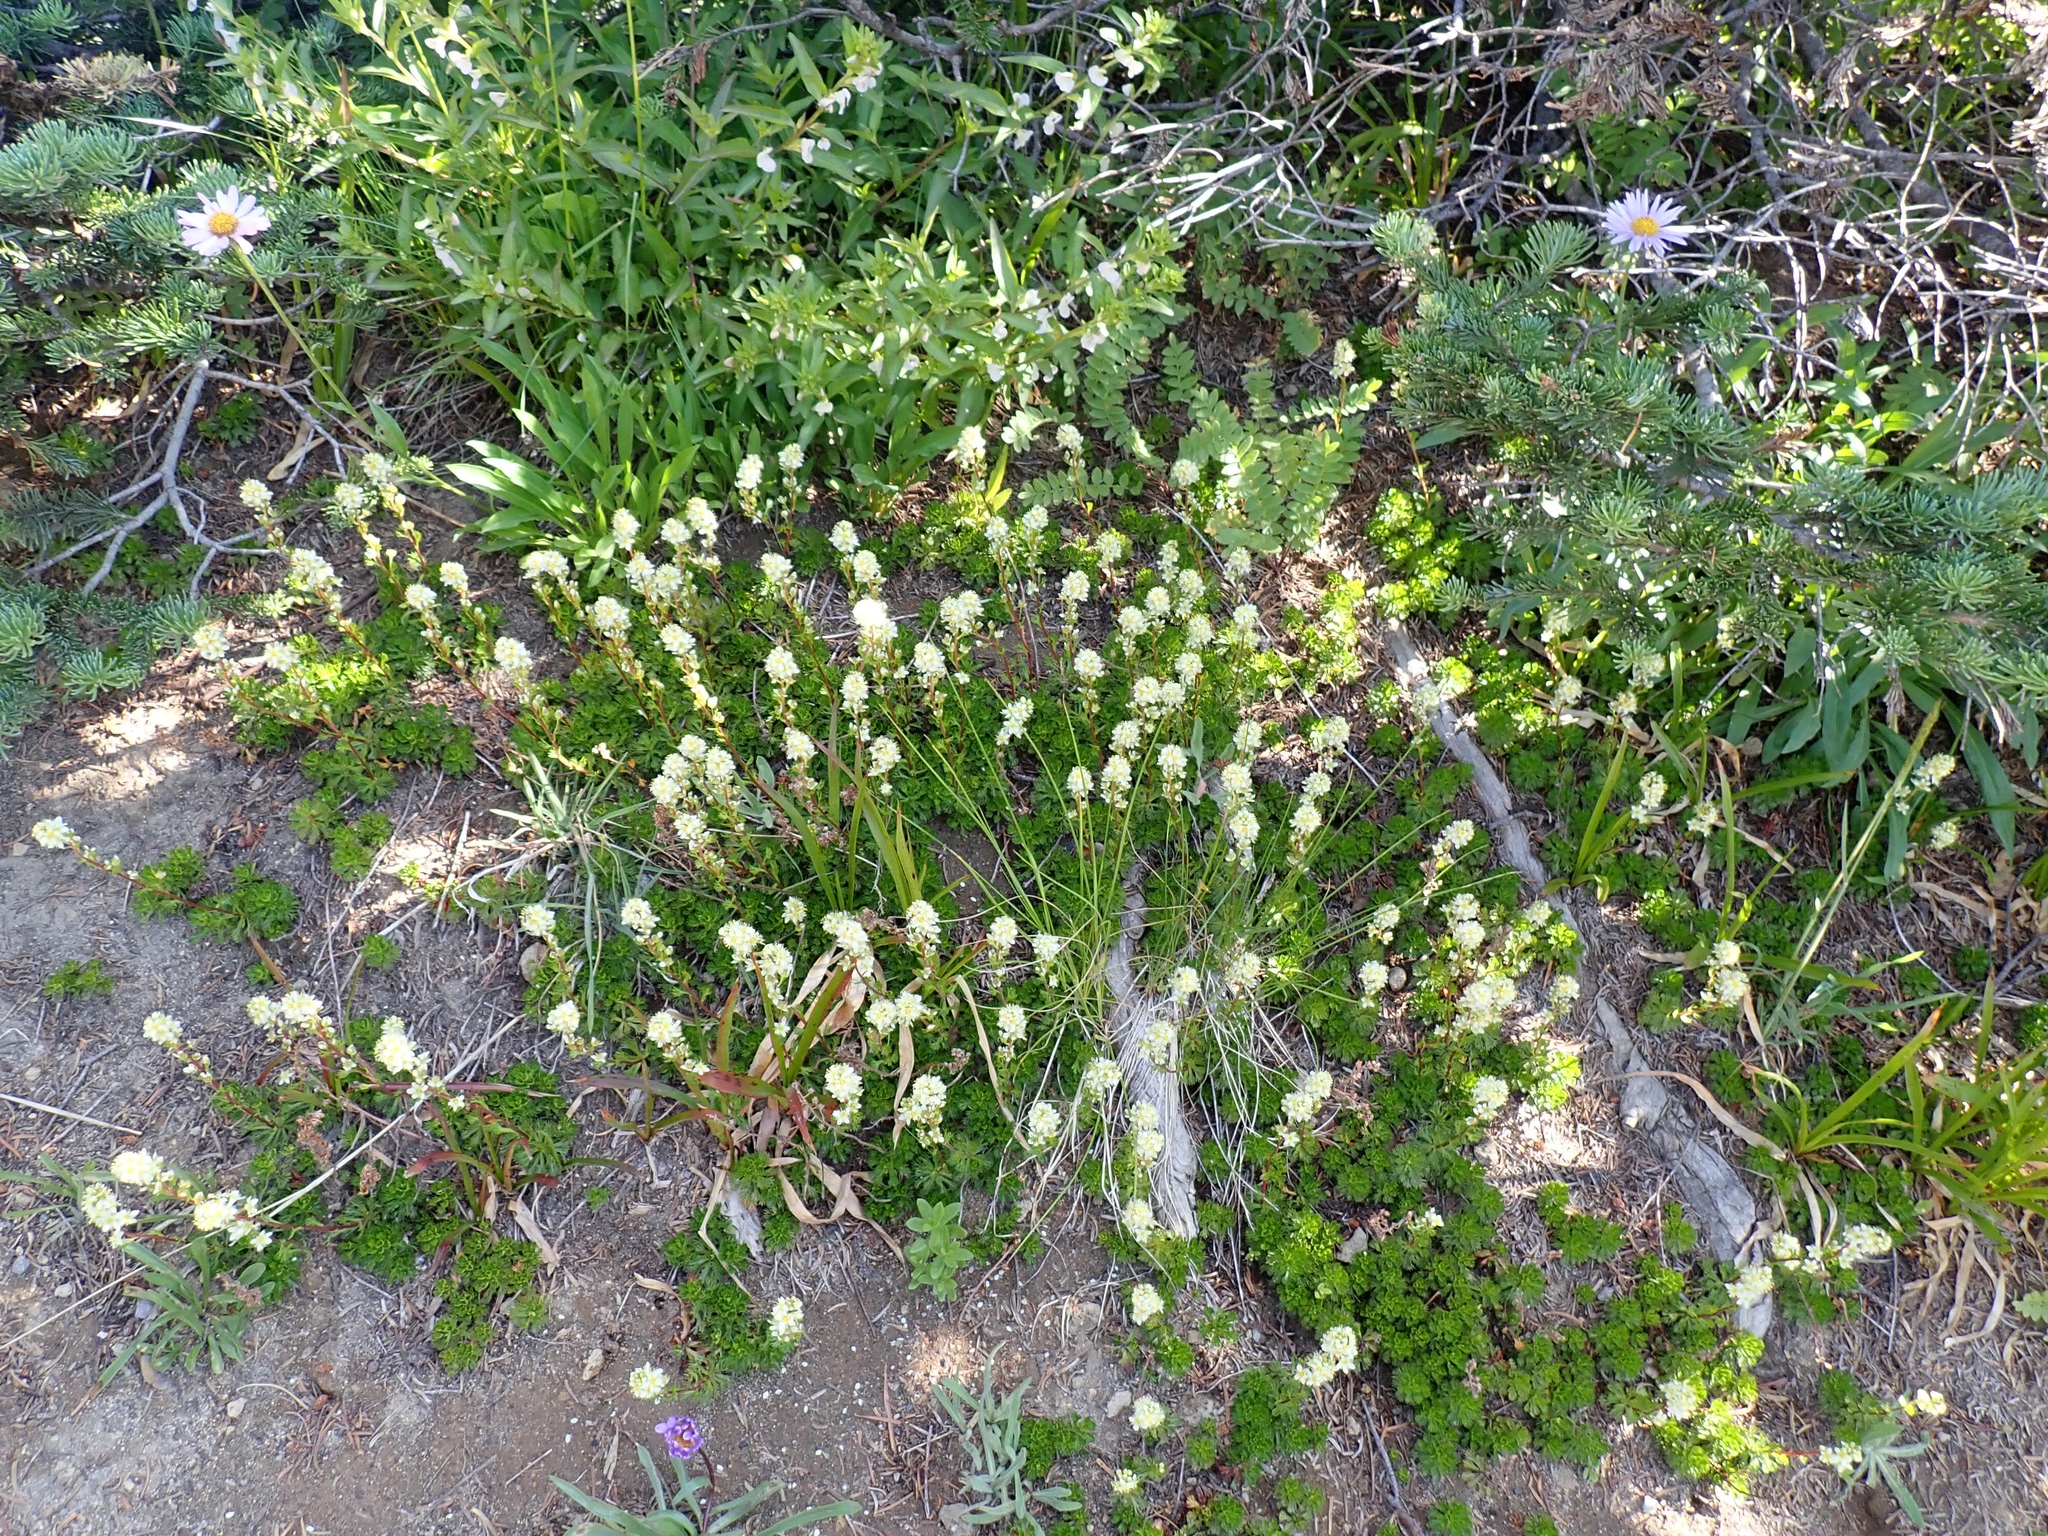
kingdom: Plantae
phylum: Tracheophyta
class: Magnoliopsida
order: Rosales
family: Rosaceae
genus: Luetkea
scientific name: Luetkea pectinata
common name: Partridgefoot
